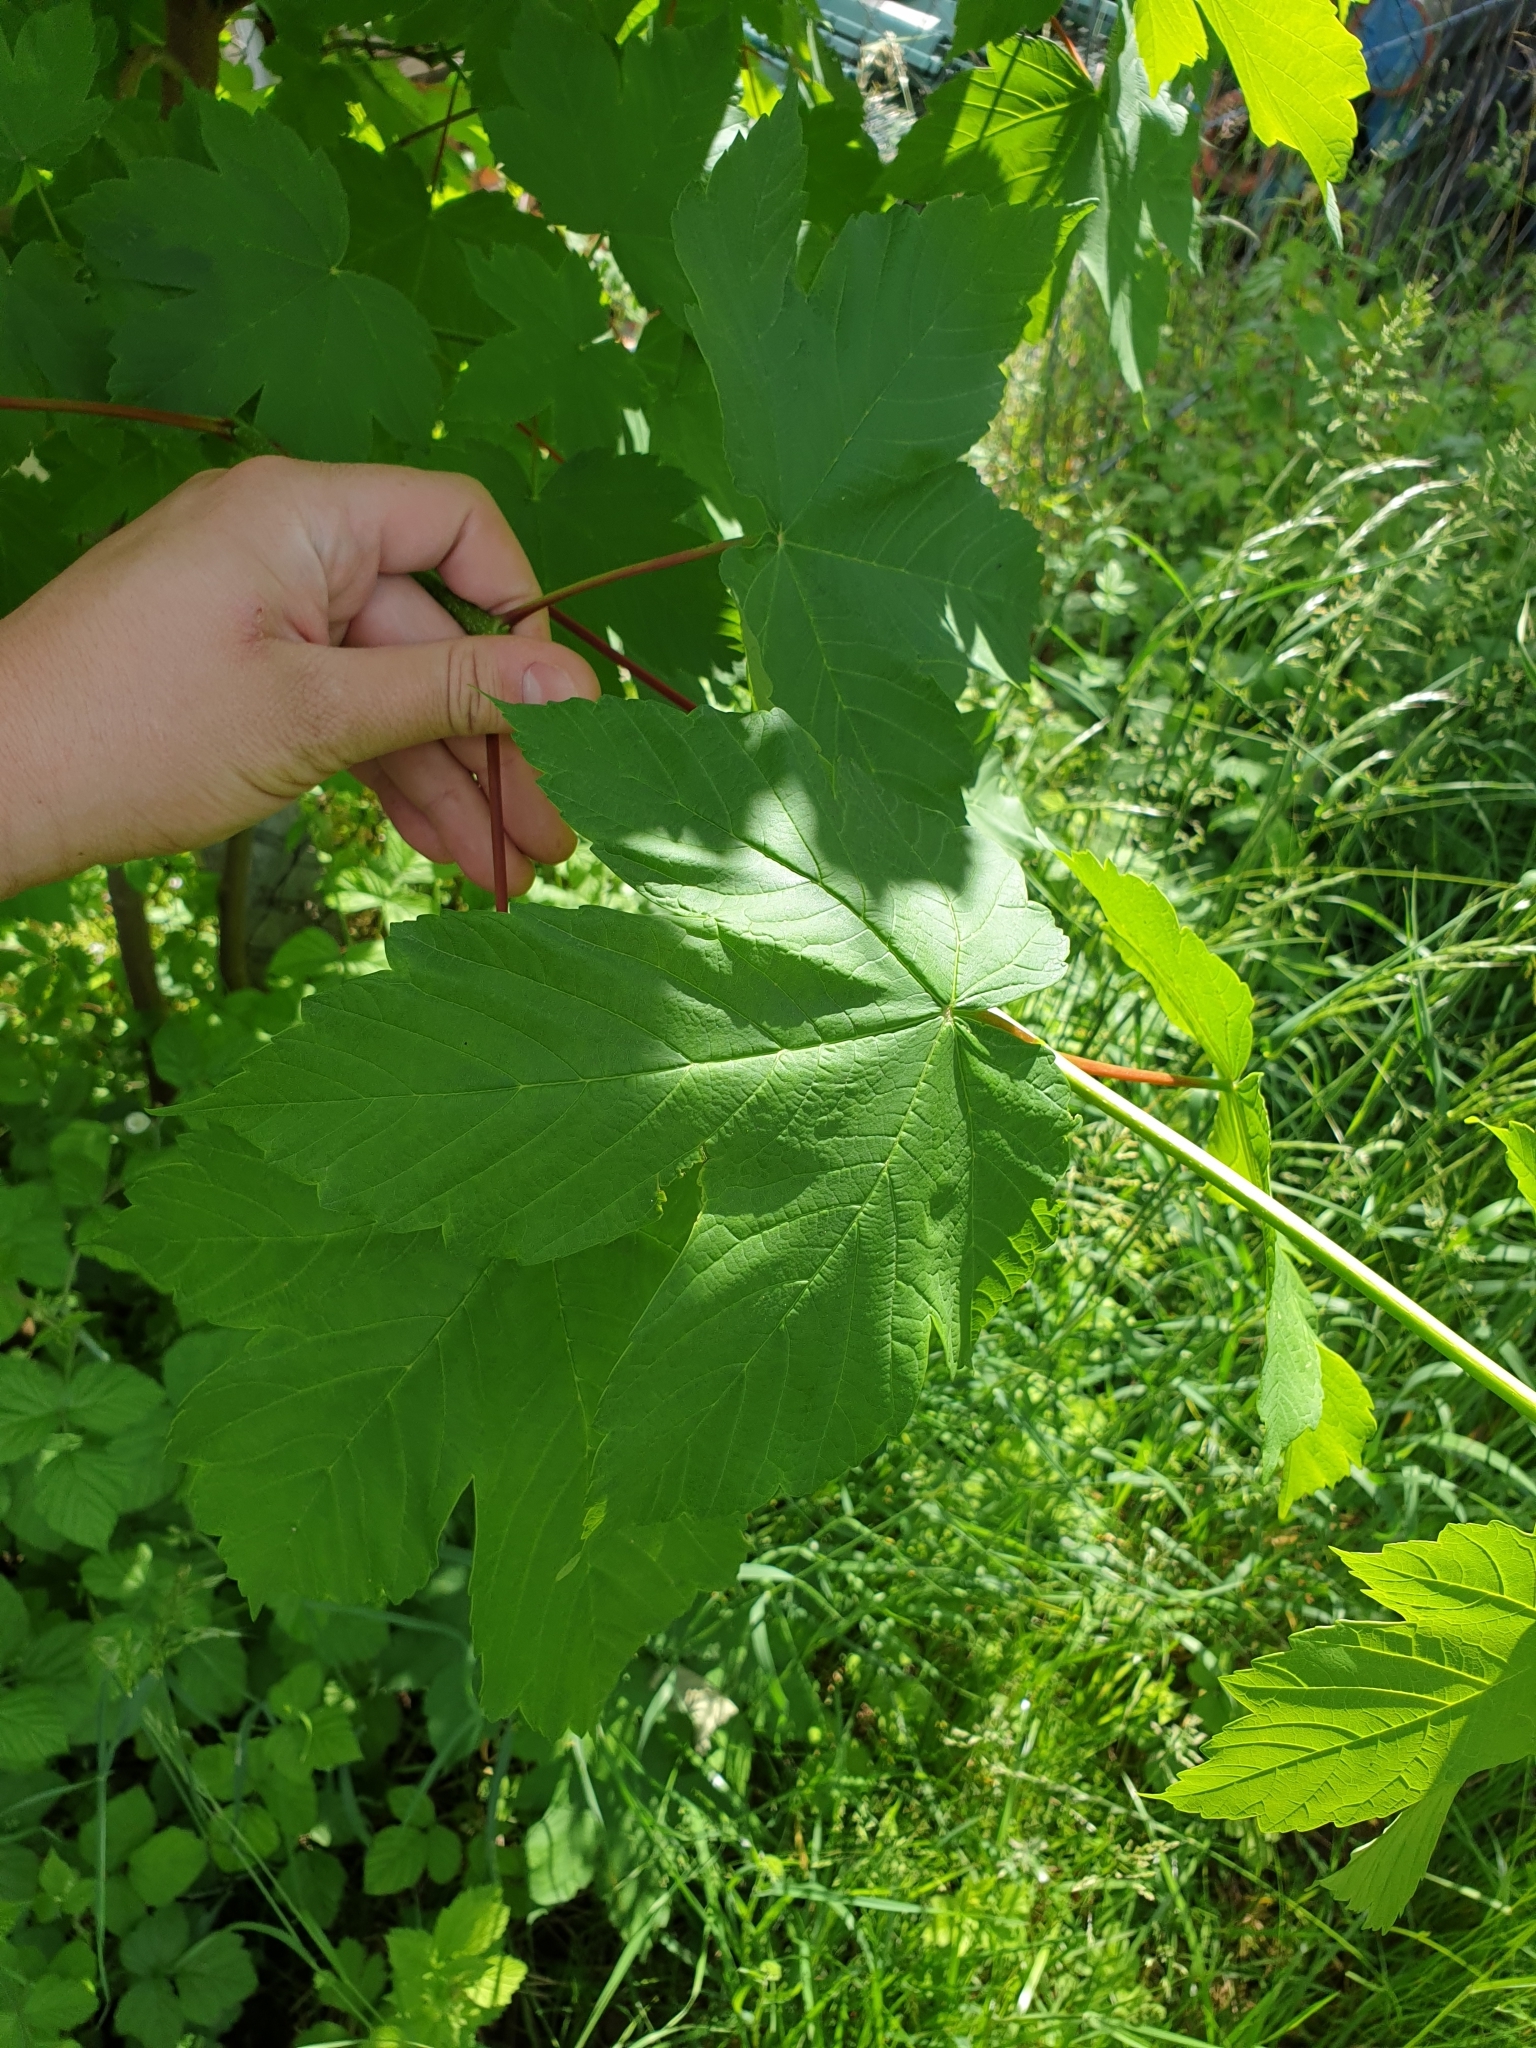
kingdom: Plantae
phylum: Tracheophyta
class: Magnoliopsida
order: Sapindales
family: Sapindaceae
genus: Acer
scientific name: Acer pseudoplatanus
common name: Sycamore
